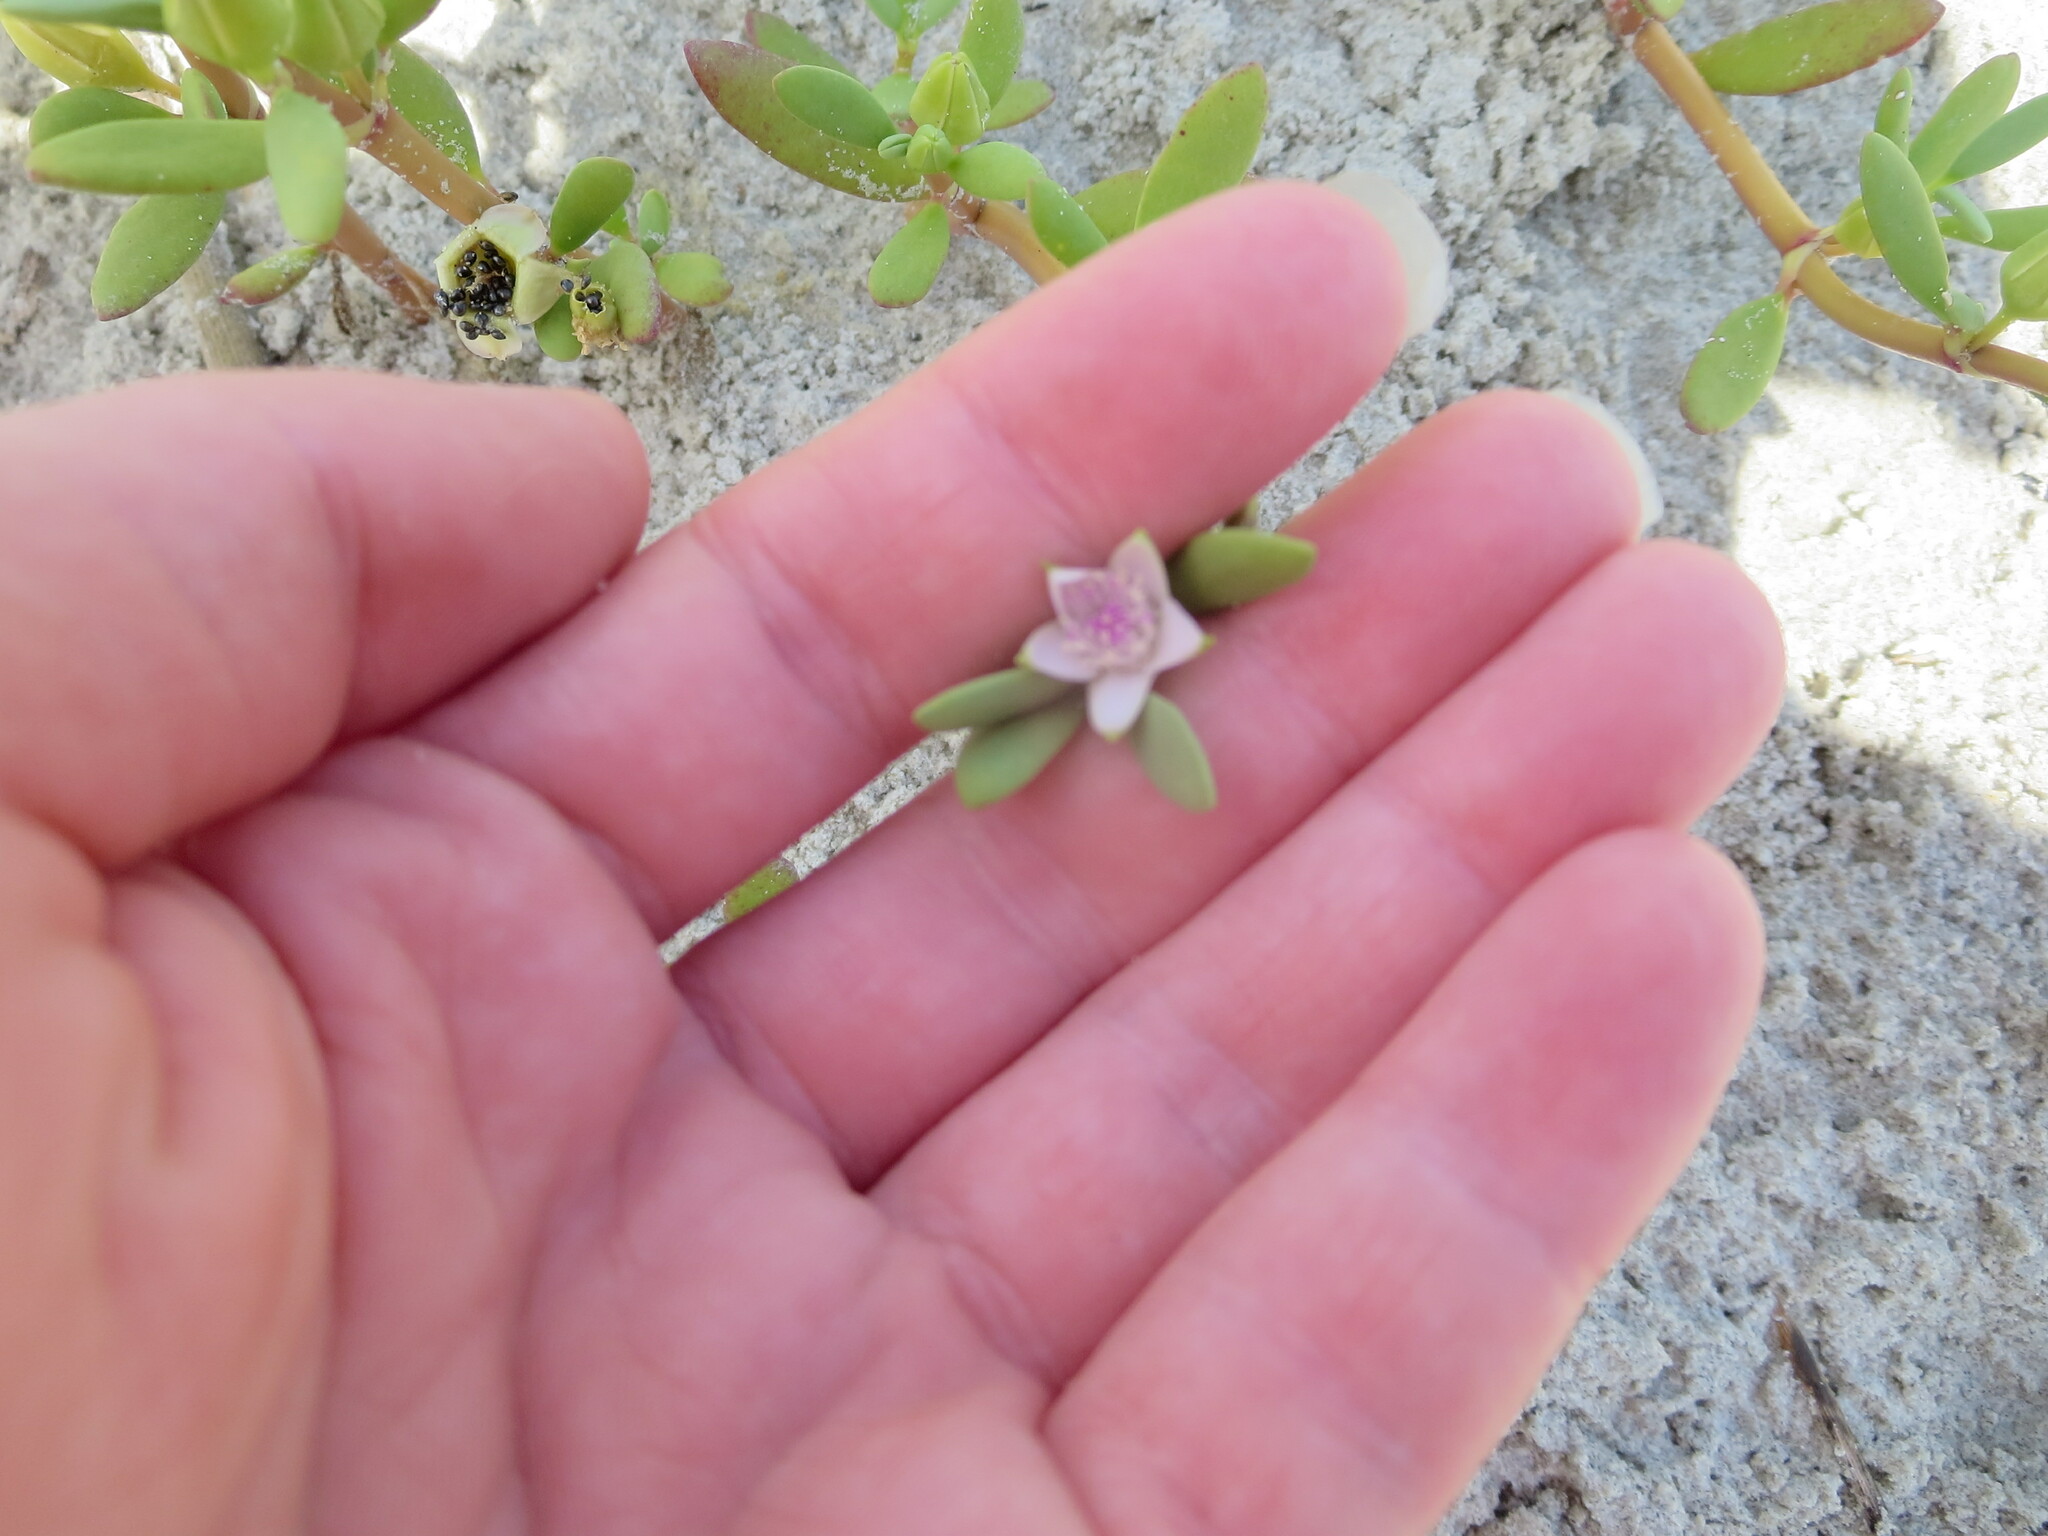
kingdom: Plantae
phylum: Tracheophyta
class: Magnoliopsida
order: Caryophyllales
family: Aizoaceae
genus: Sesuvium
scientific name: Sesuvium portulacastrum
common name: Sea-purslane
